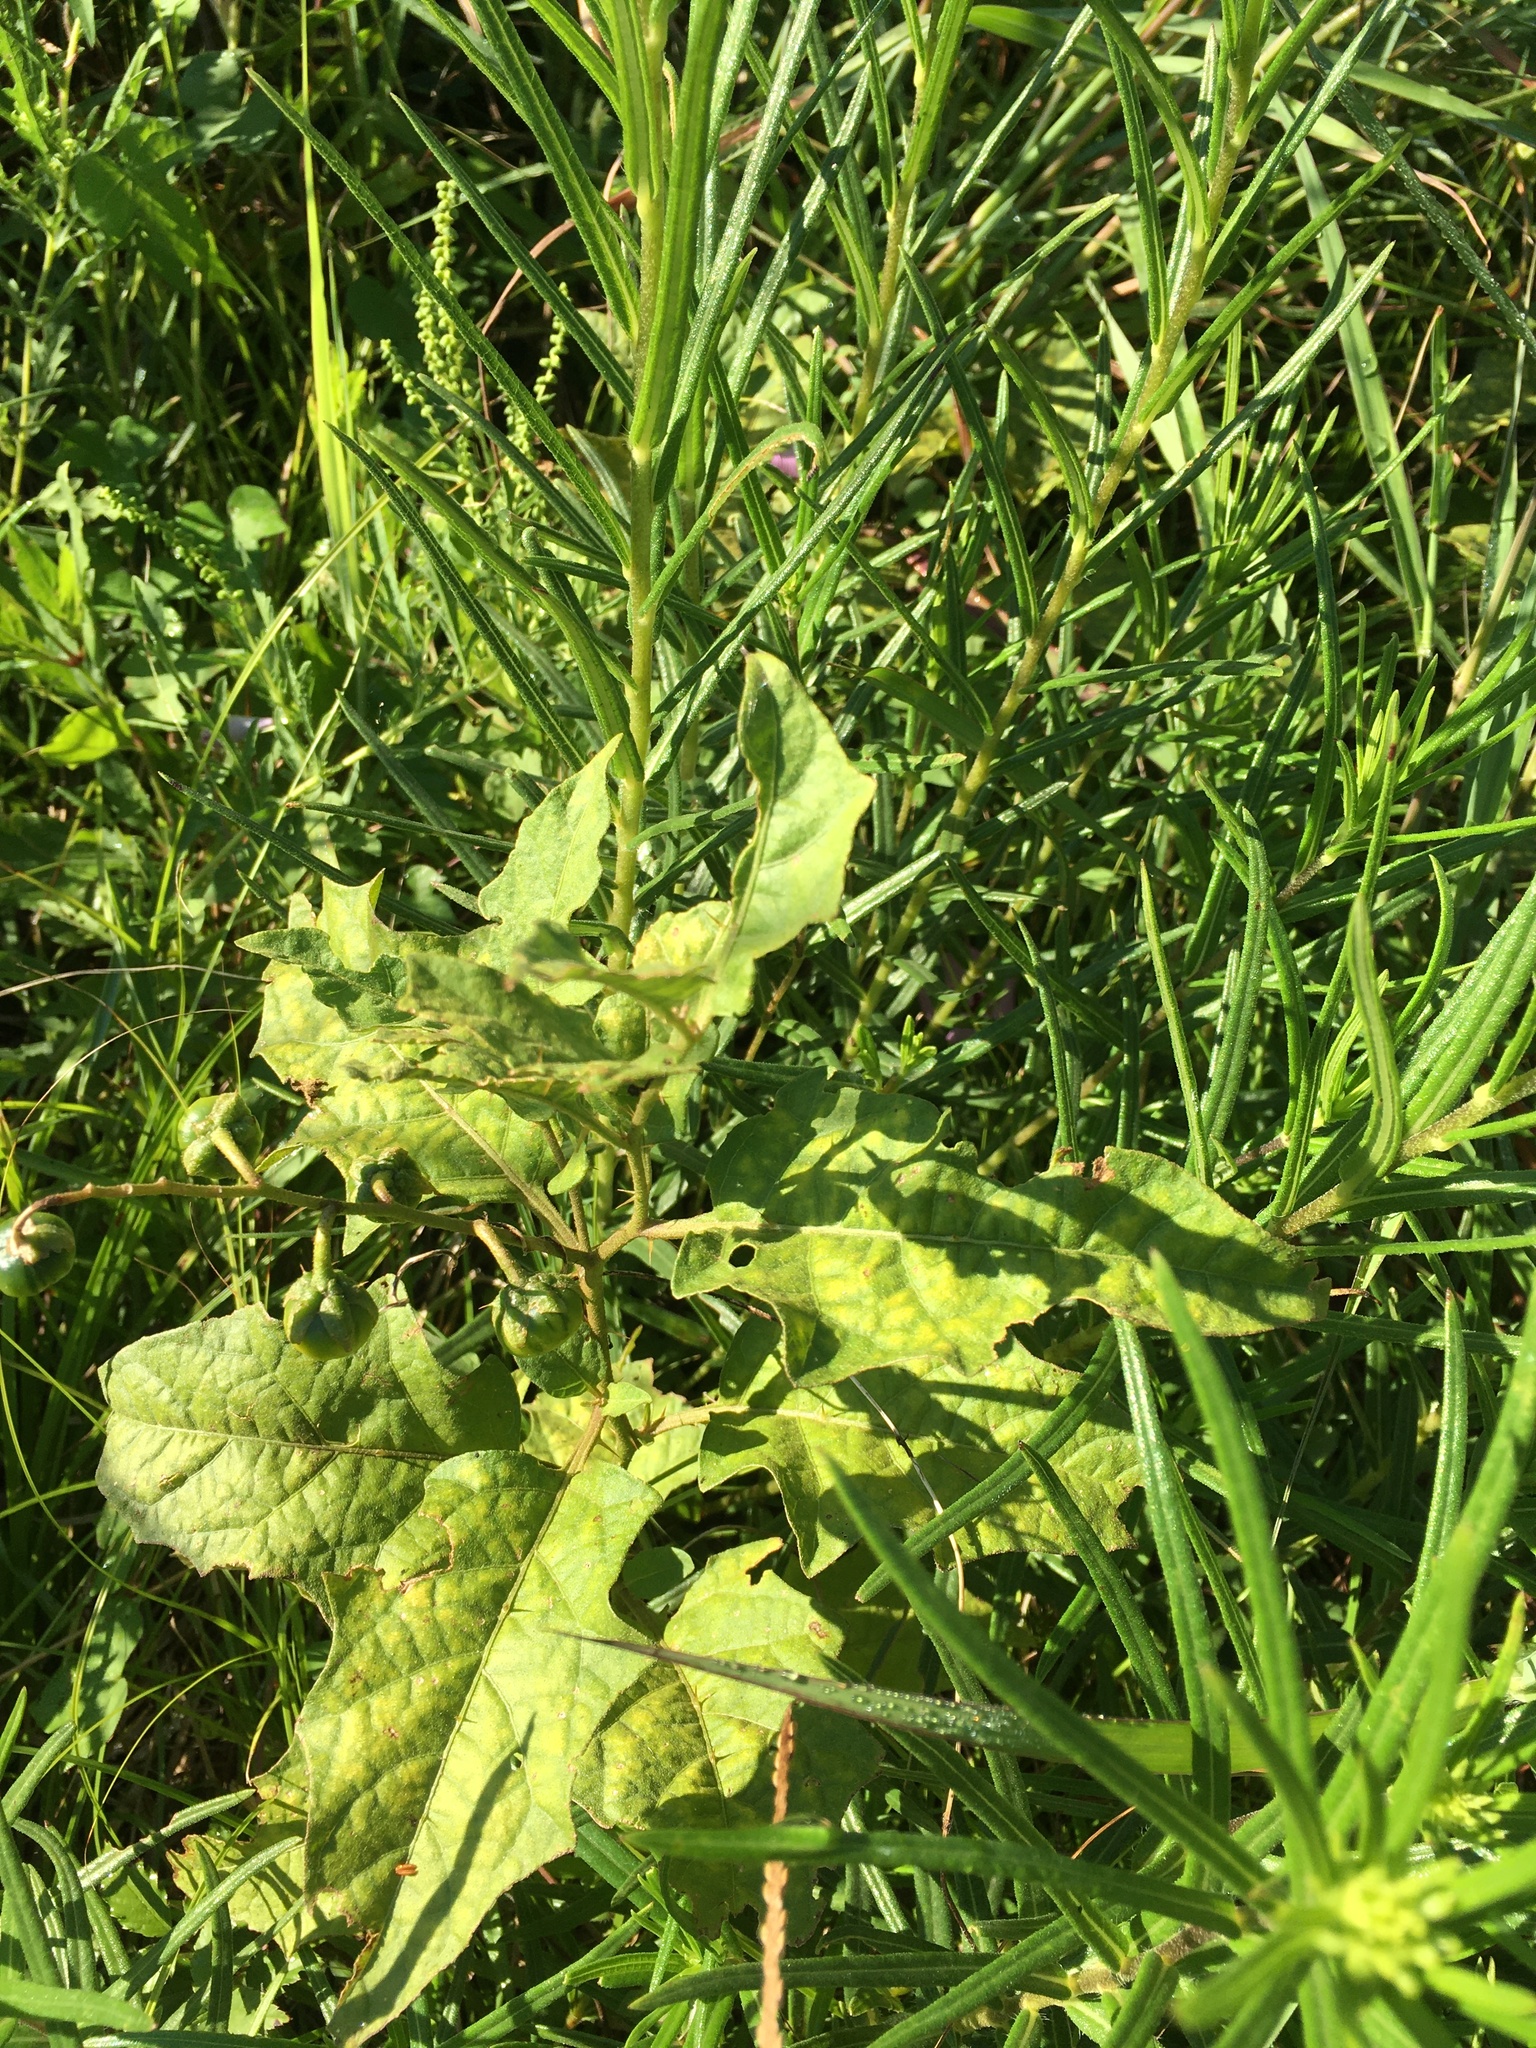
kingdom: Plantae
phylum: Tracheophyta
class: Magnoliopsida
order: Solanales
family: Solanaceae
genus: Solanum
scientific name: Solanum carolinense
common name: Horse-nettle
